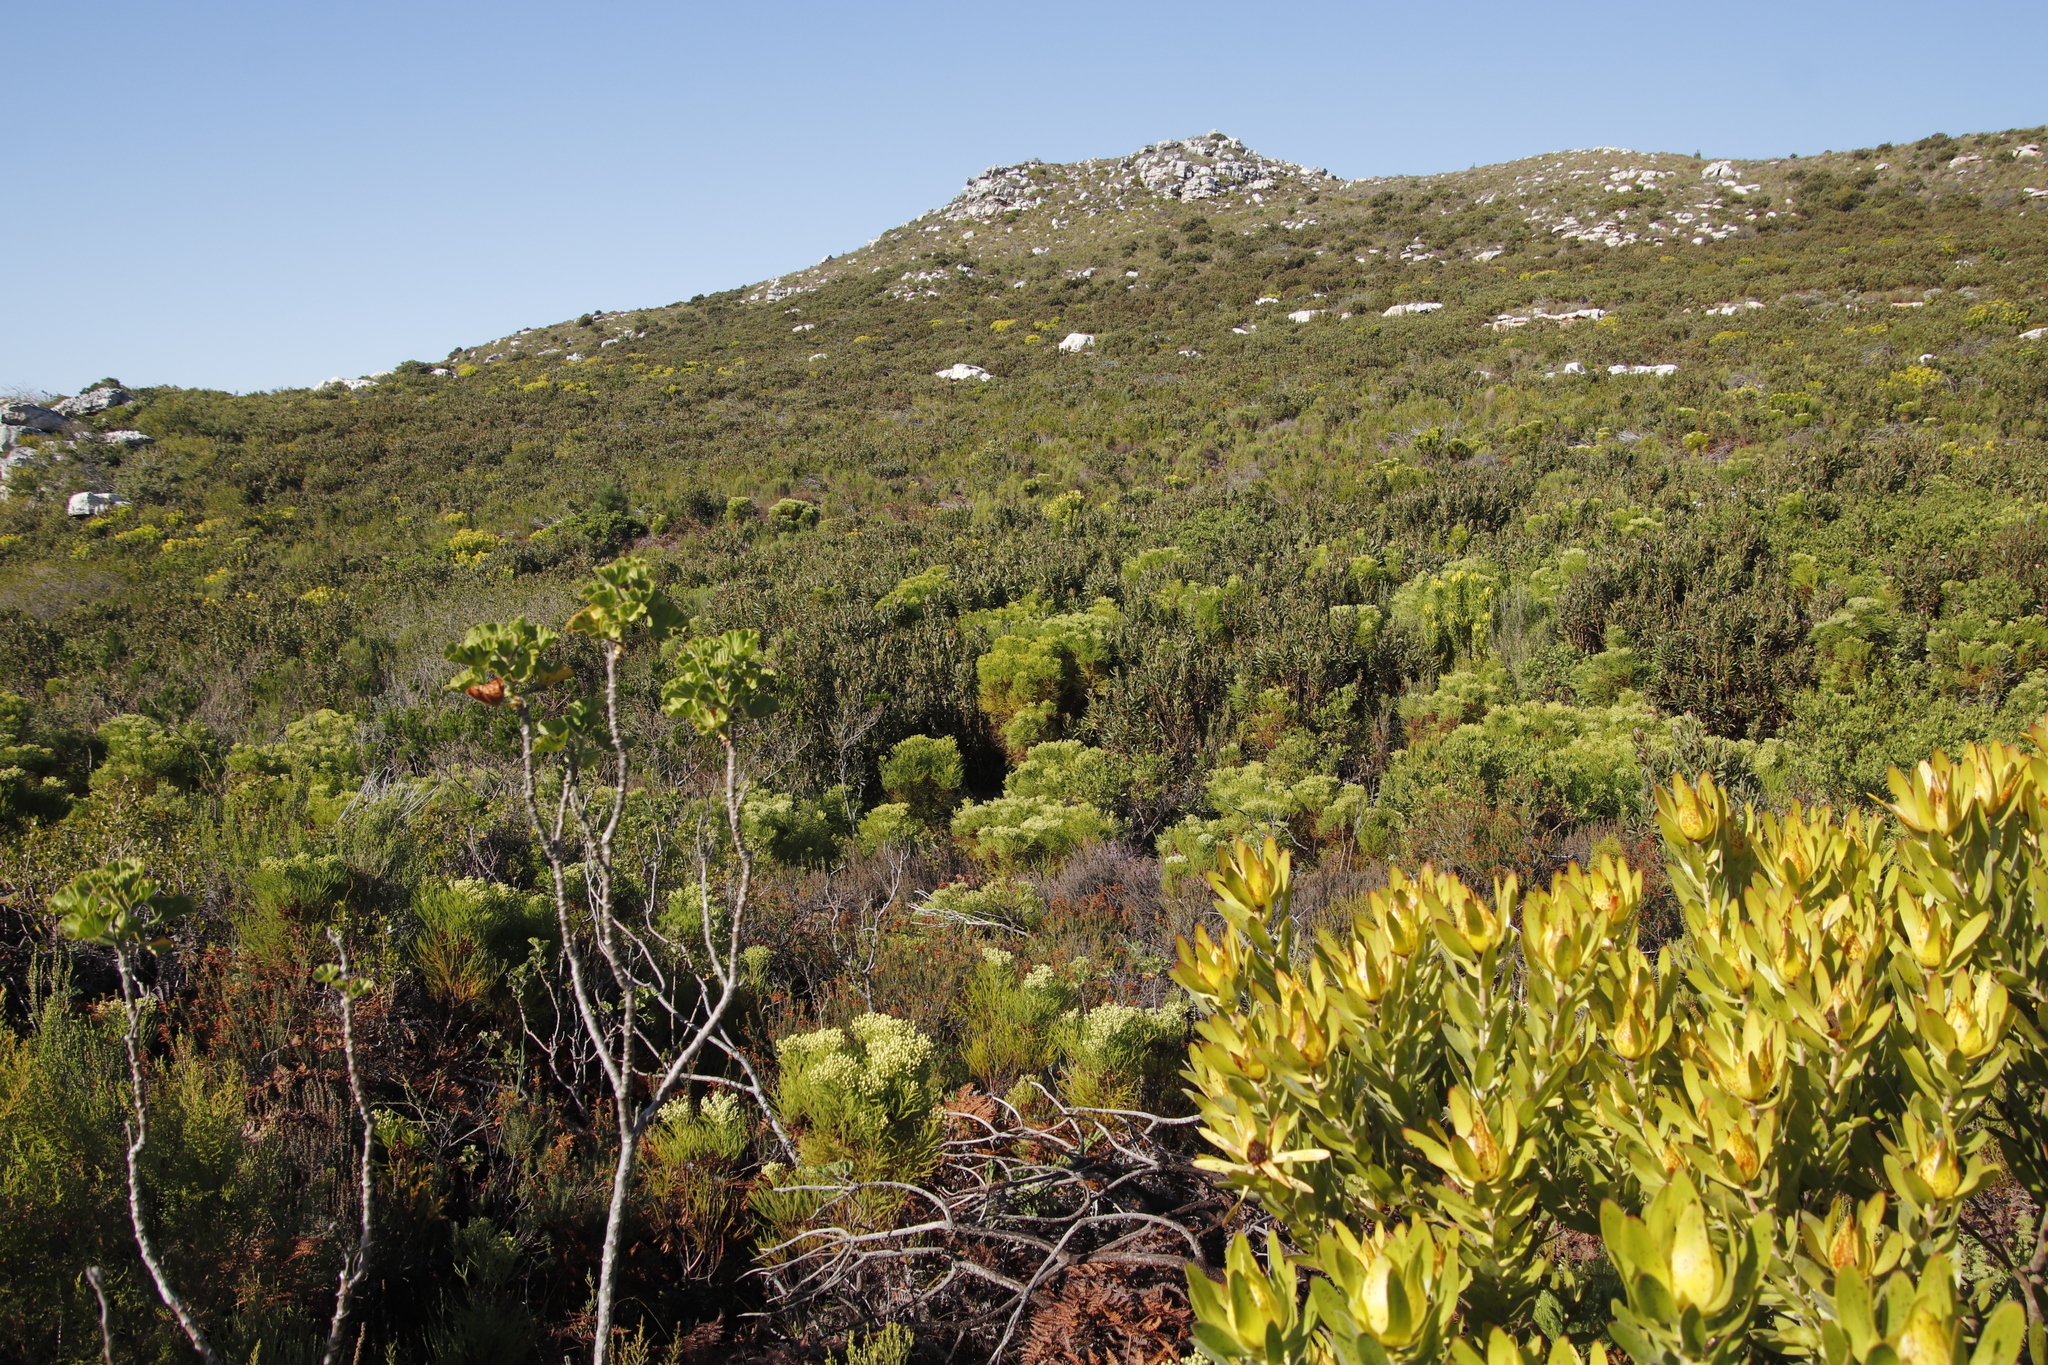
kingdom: Plantae
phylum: Tracheophyta
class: Pinopsida
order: Pinales
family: Pinaceae
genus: Pinus
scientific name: Pinus radiata
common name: Monterey pine
